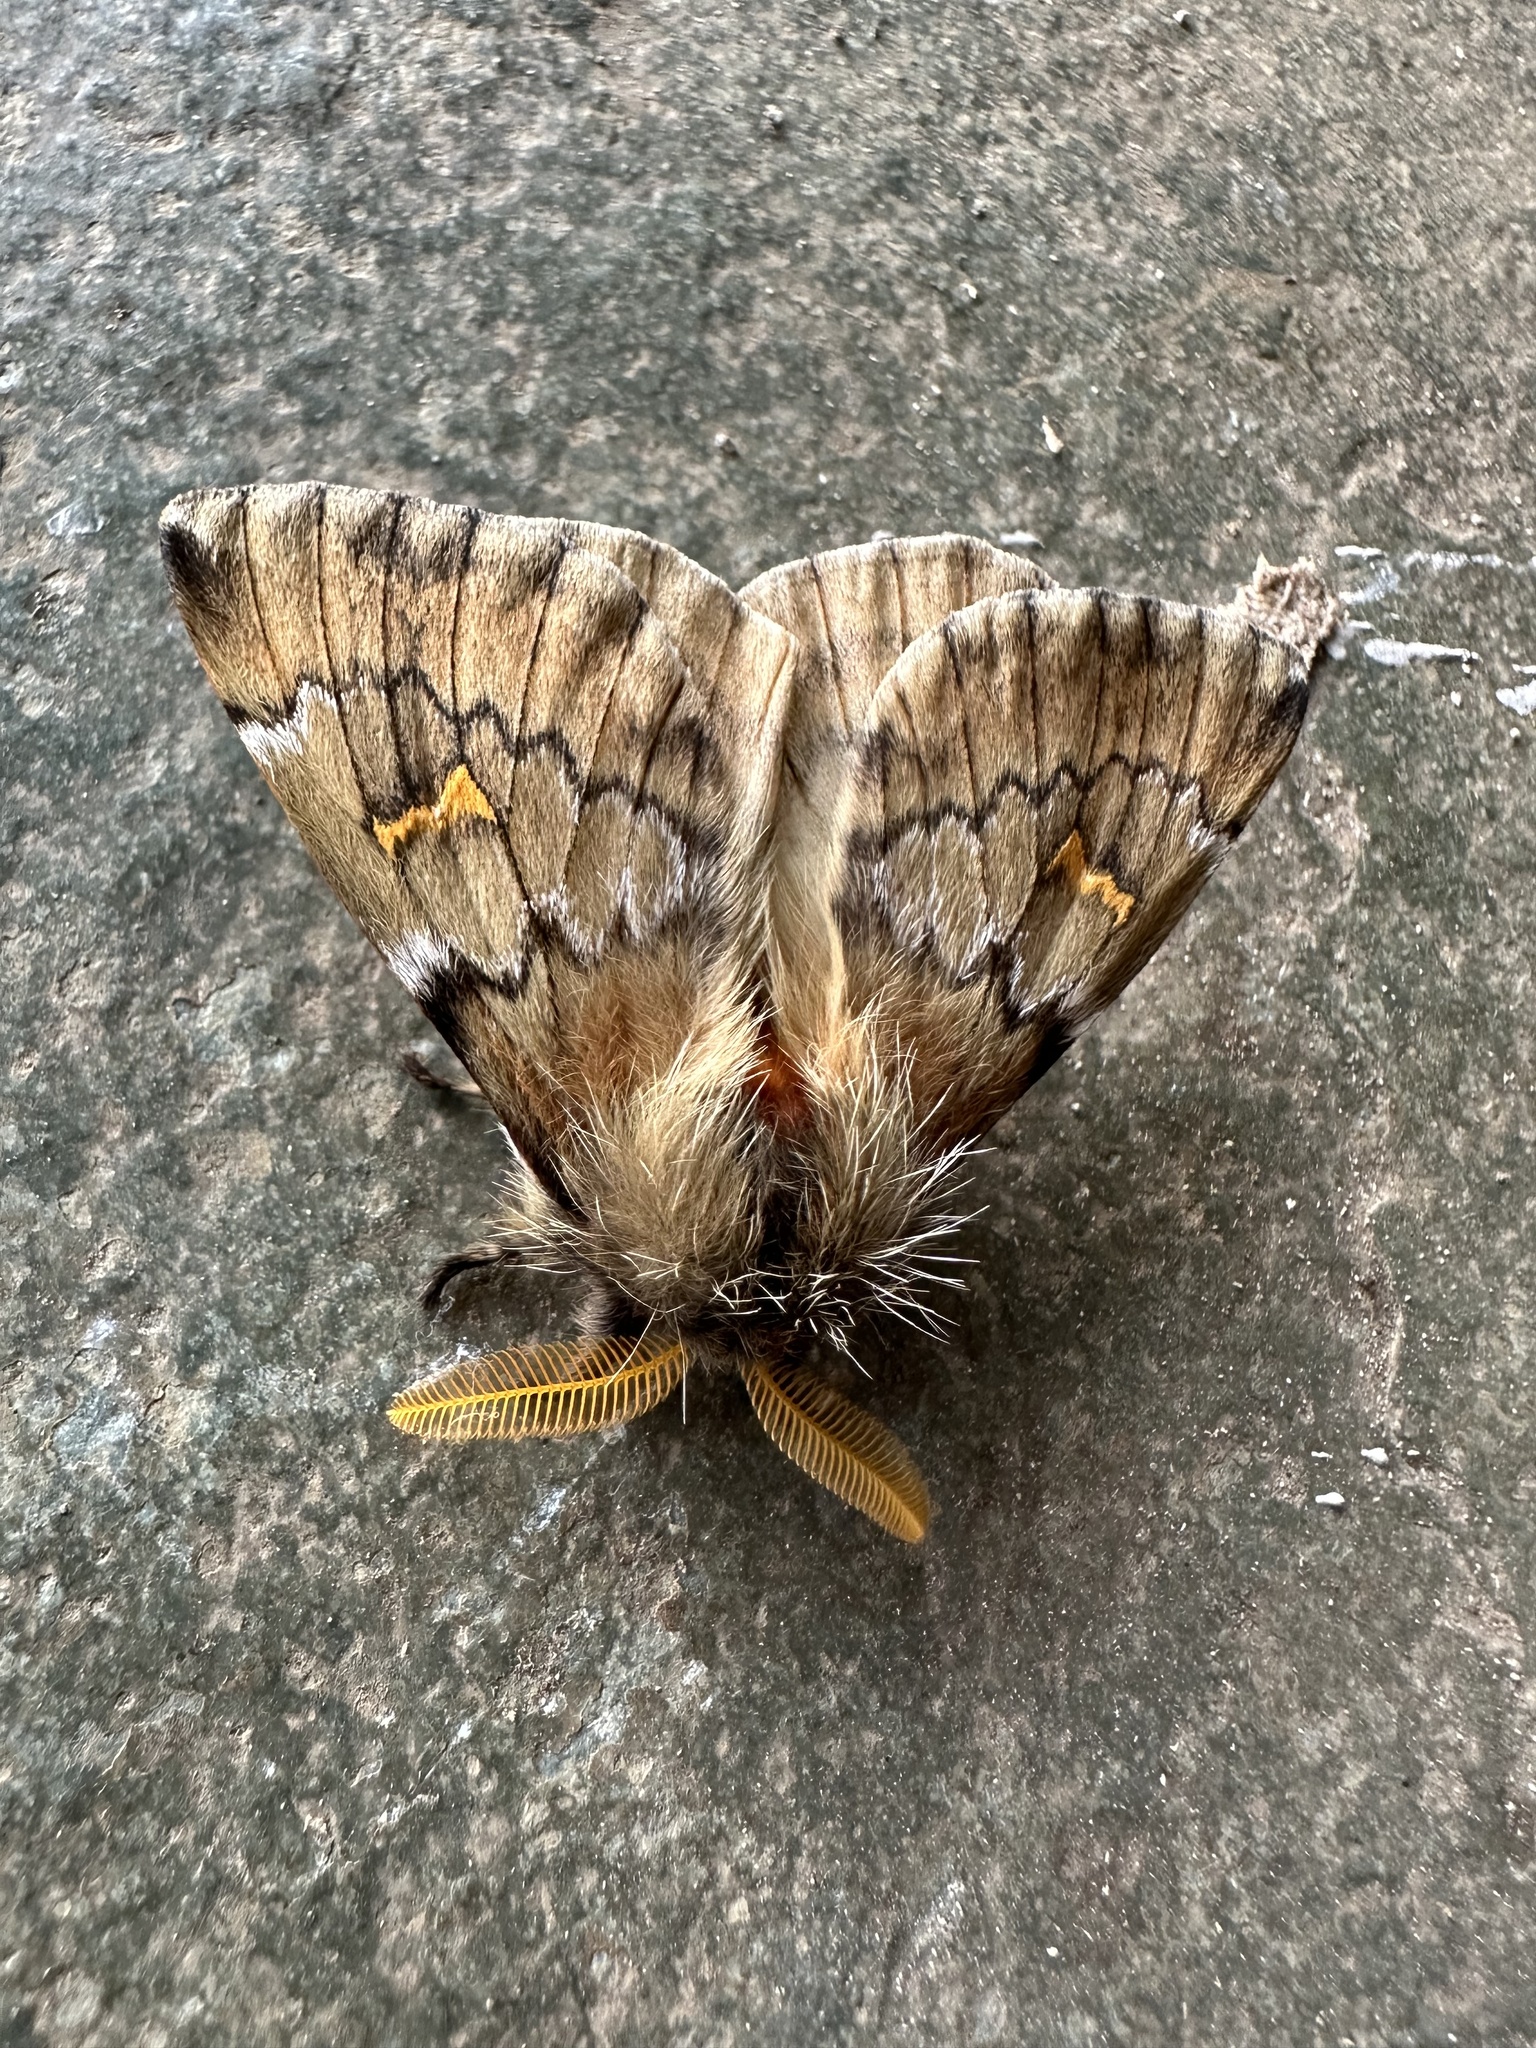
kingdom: Animalia
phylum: Arthropoda
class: Insecta
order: Lepidoptera
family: Saturniidae
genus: Ormiscodes
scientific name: Ormiscodes joiceyi
